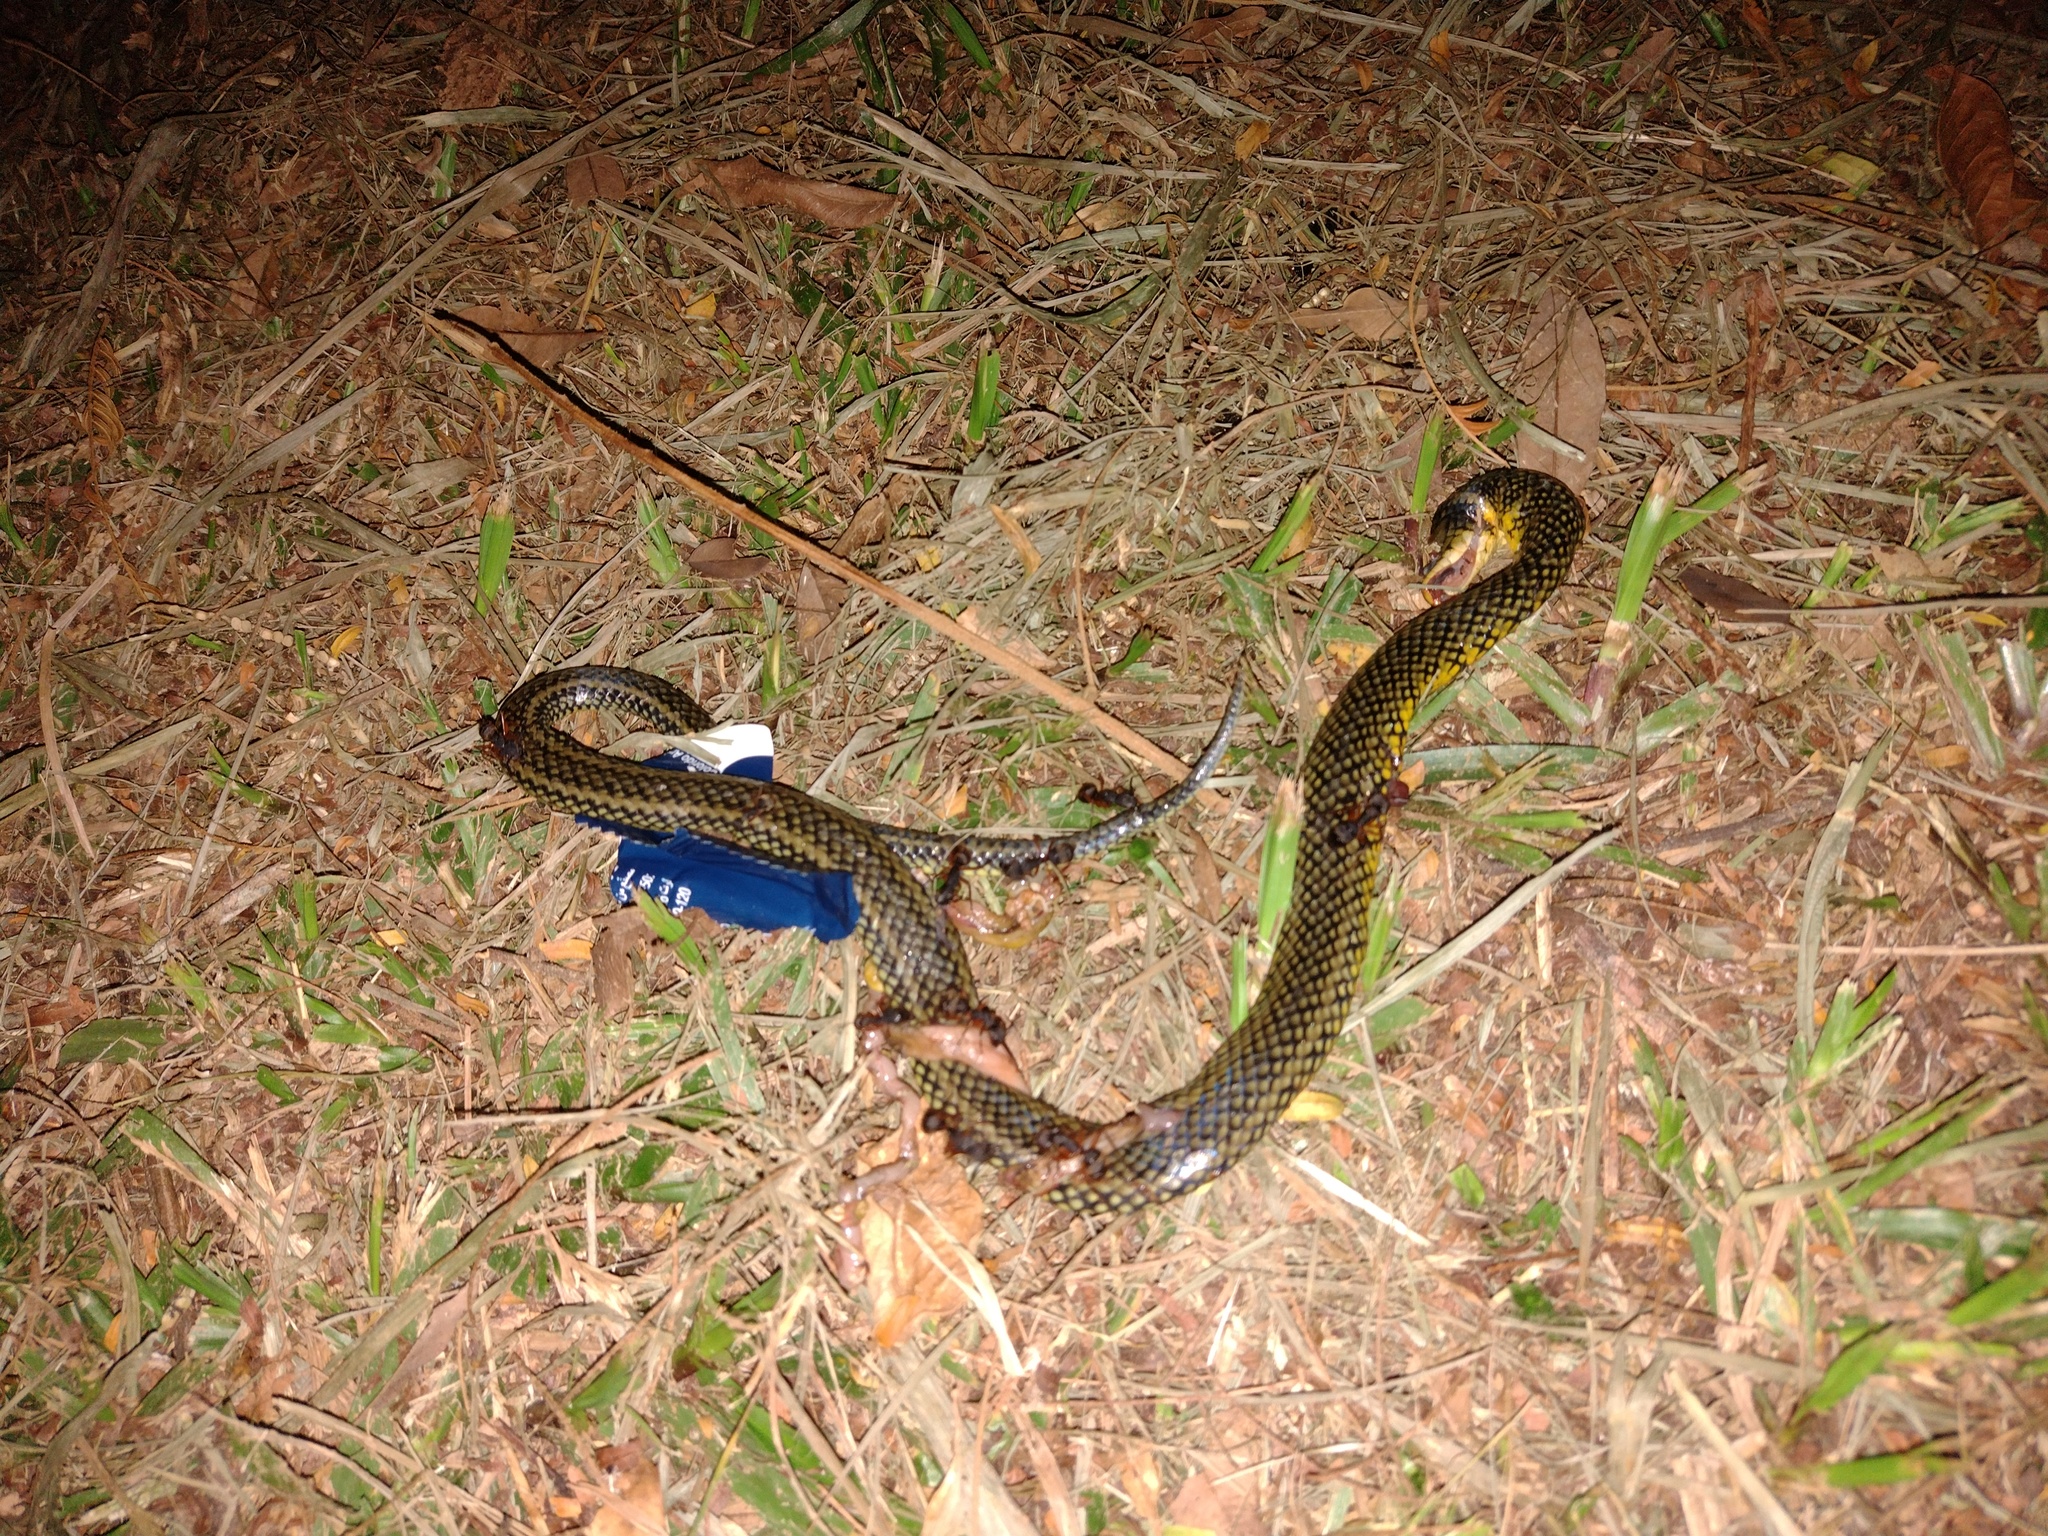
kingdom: Animalia
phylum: Chordata
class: Squamata
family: Colubridae
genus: Erythrolamprus
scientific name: Erythrolamprus miliaris
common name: Military ground snake
